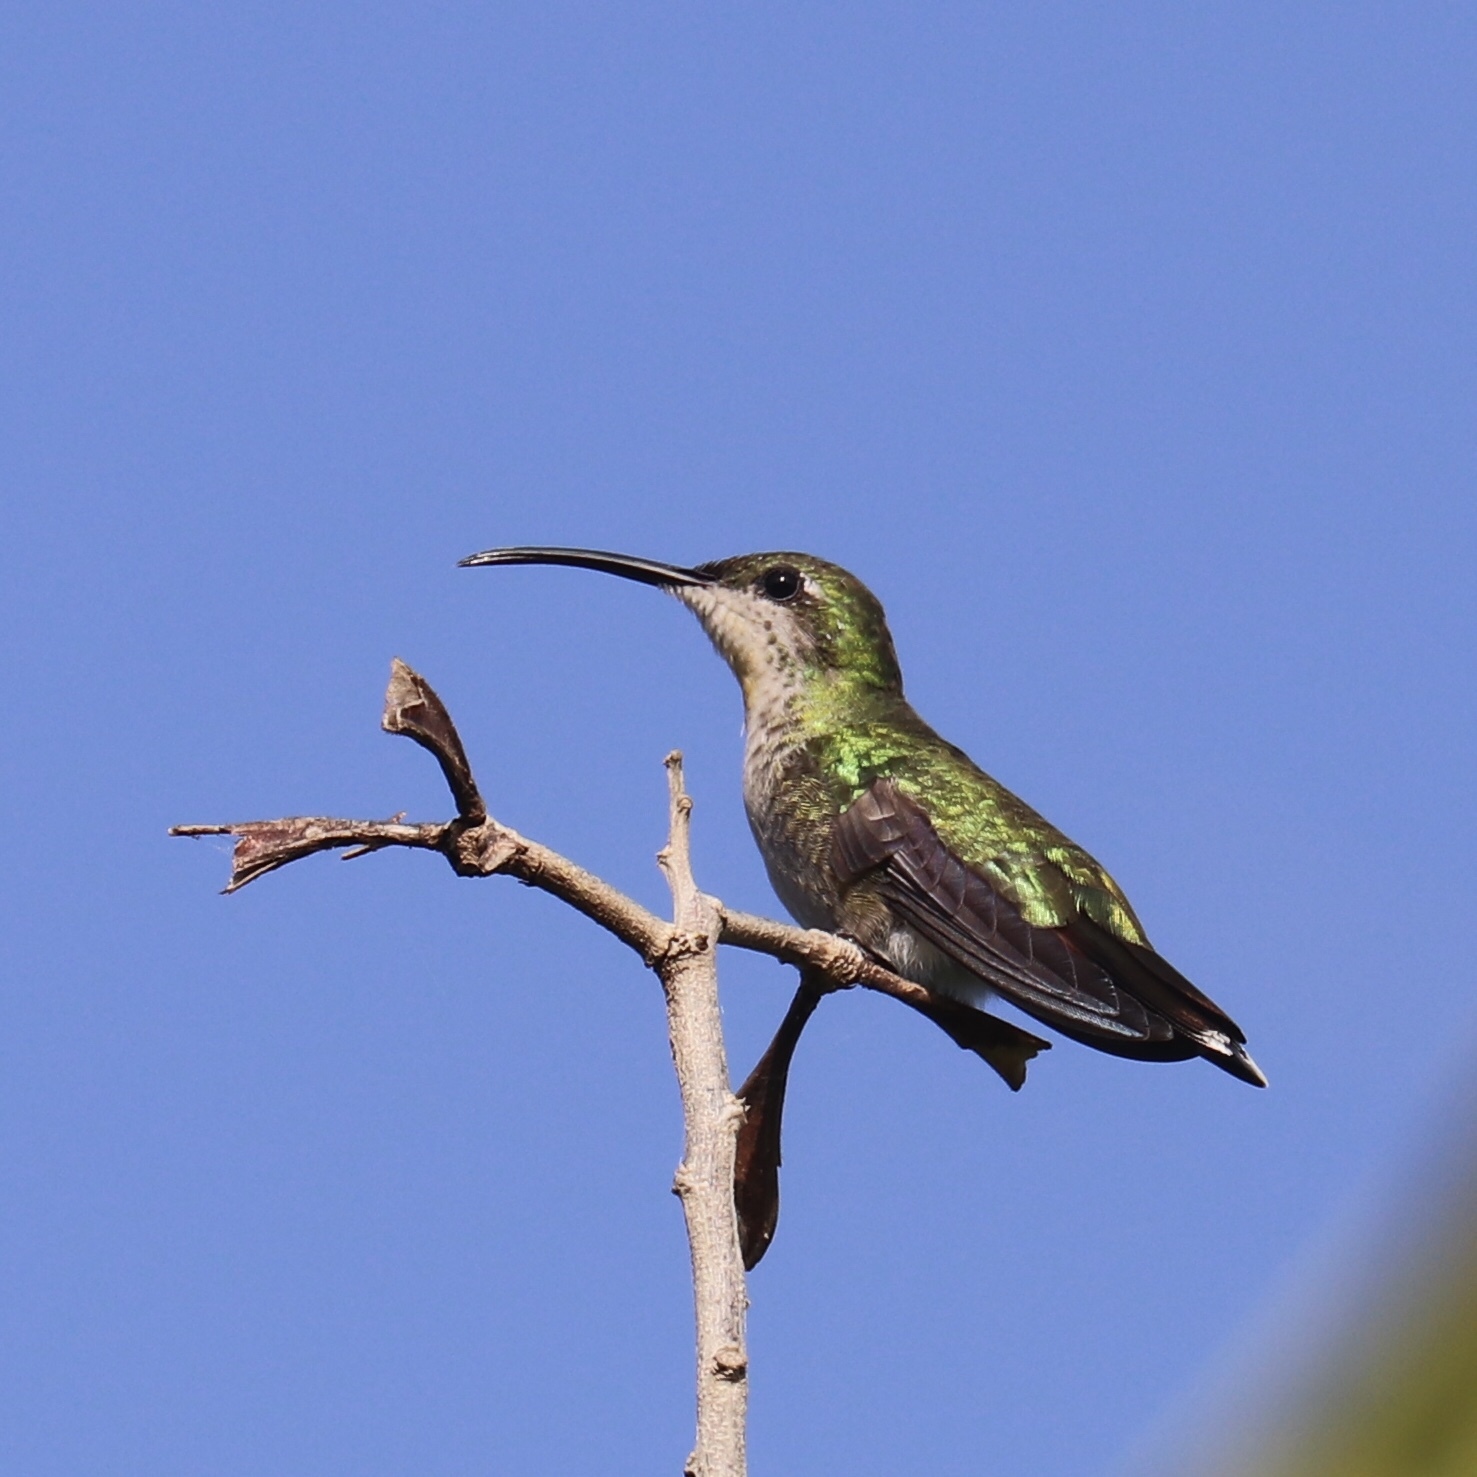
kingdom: Animalia
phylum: Chordata
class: Aves
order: Apodiformes
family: Trochilidae
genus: Anthracothorax
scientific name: Anthracothorax dominicus
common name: Antillean mango
